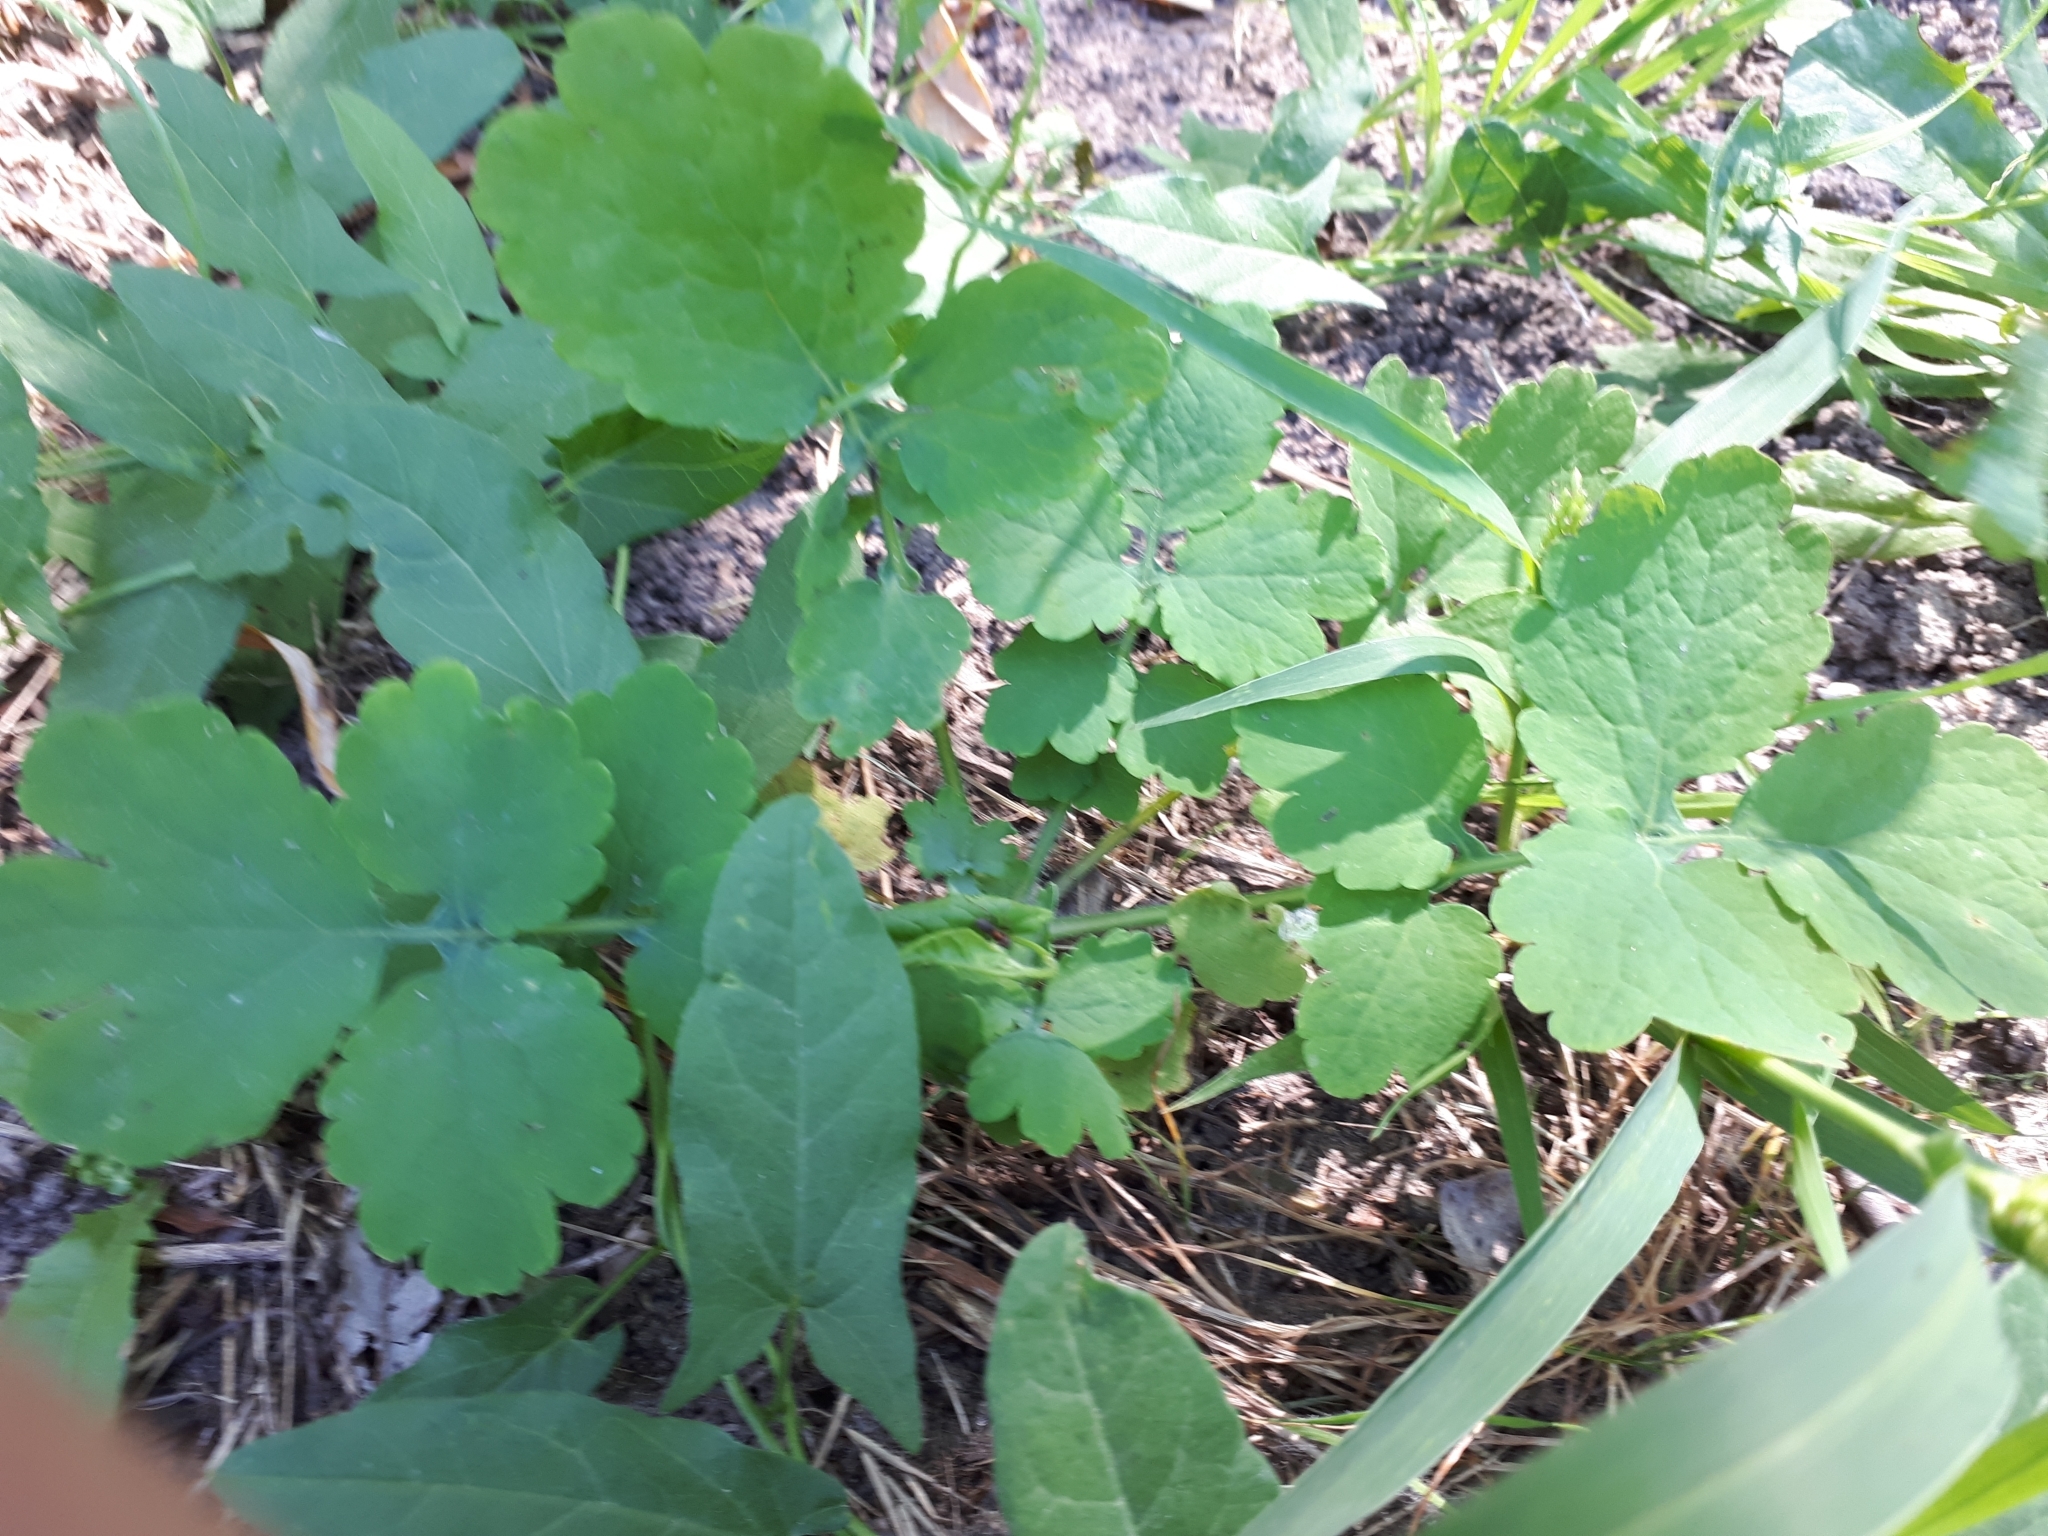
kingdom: Plantae
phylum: Tracheophyta
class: Magnoliopsida
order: Ranunculales
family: Papaveraceae
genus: Chelidonium
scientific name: Chelidonium majus
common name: Greater celandine
